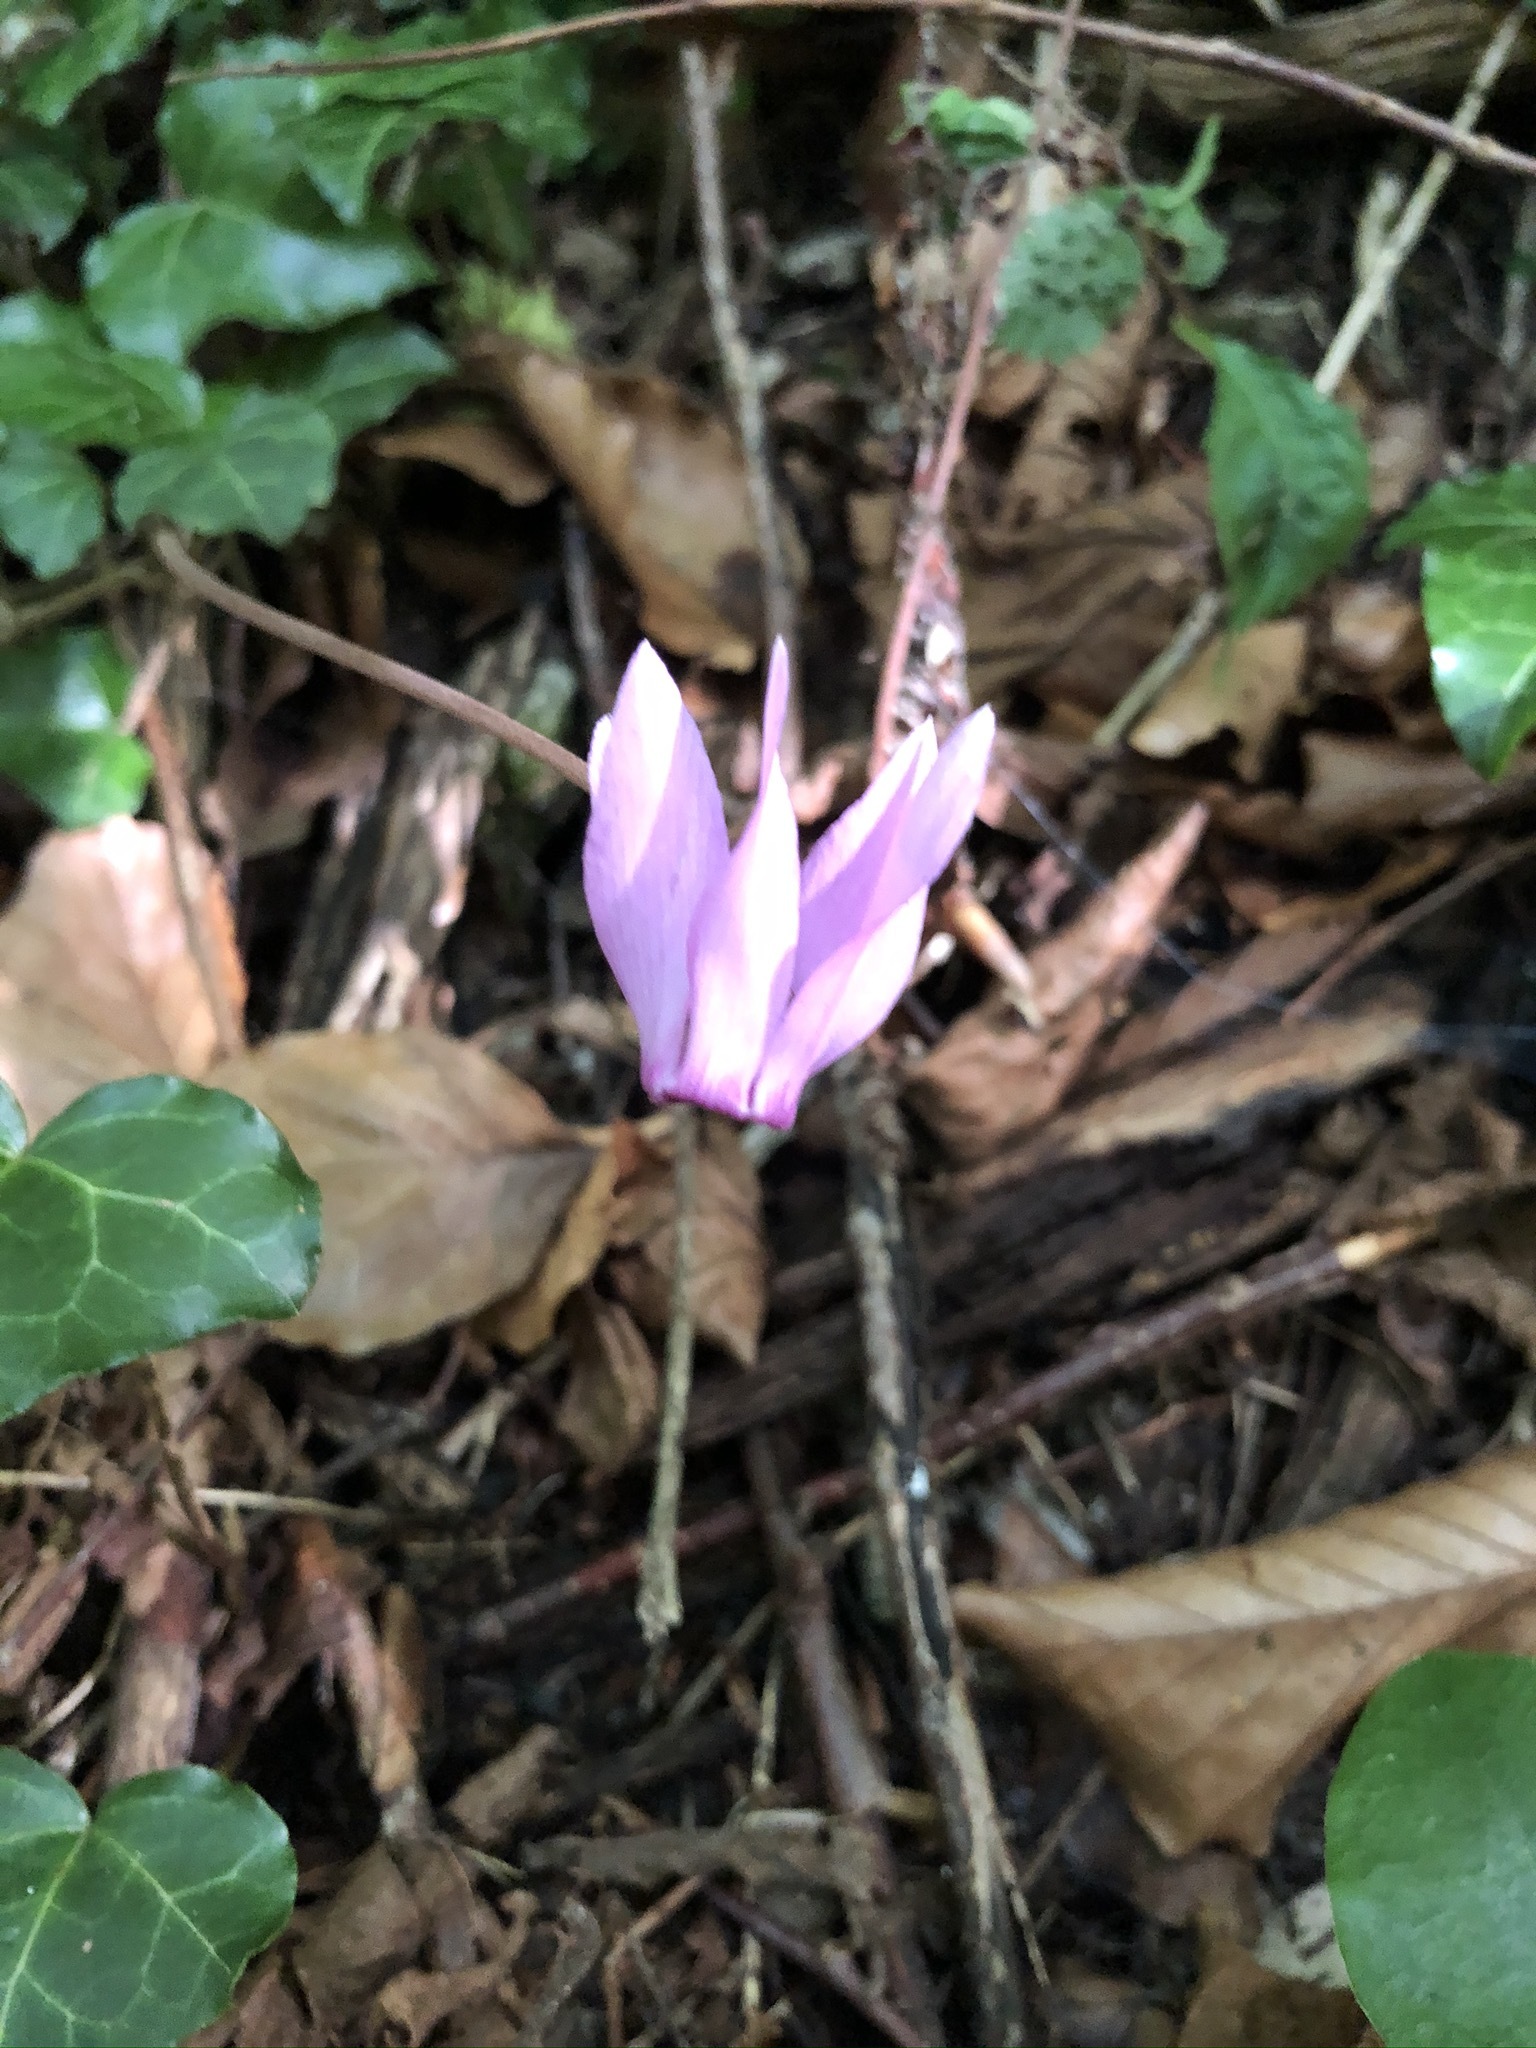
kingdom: Plantae
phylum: Tracheophyta
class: Magnoliopsida
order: Ericales
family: Primulaceae
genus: Cyclamen
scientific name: Cyclamen purpurascens
